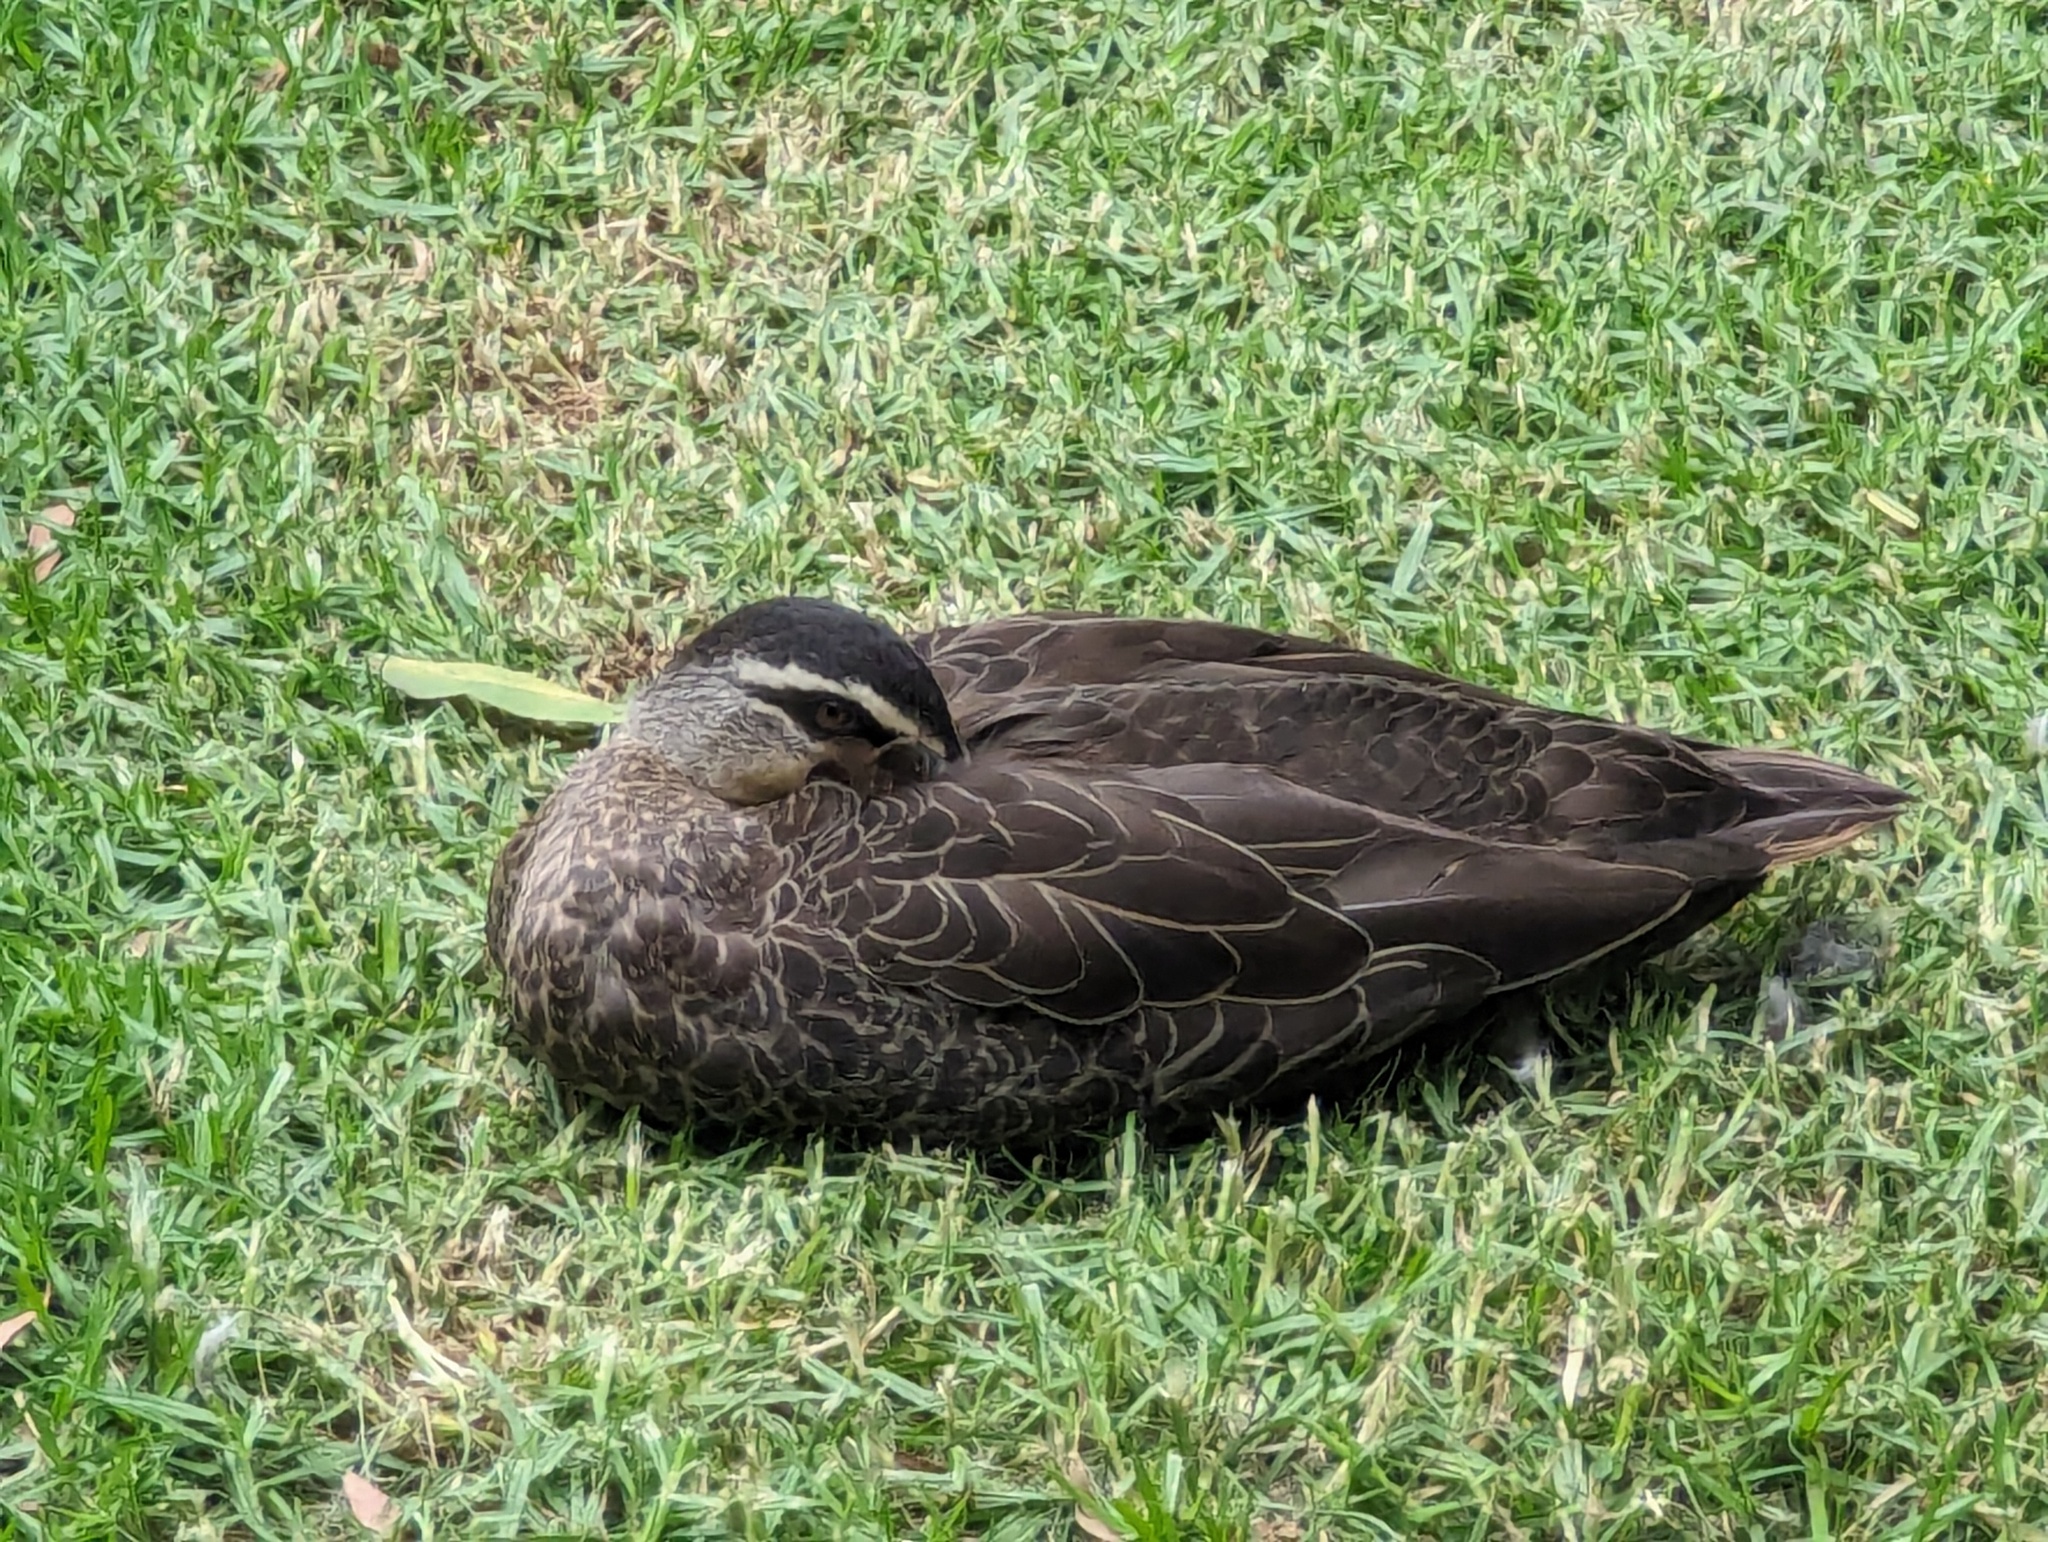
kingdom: Animalia
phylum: Chordata
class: Aves
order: Anseriformes
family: Anatidae
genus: Anas
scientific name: Anas superciliosa
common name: Pacific black duck
